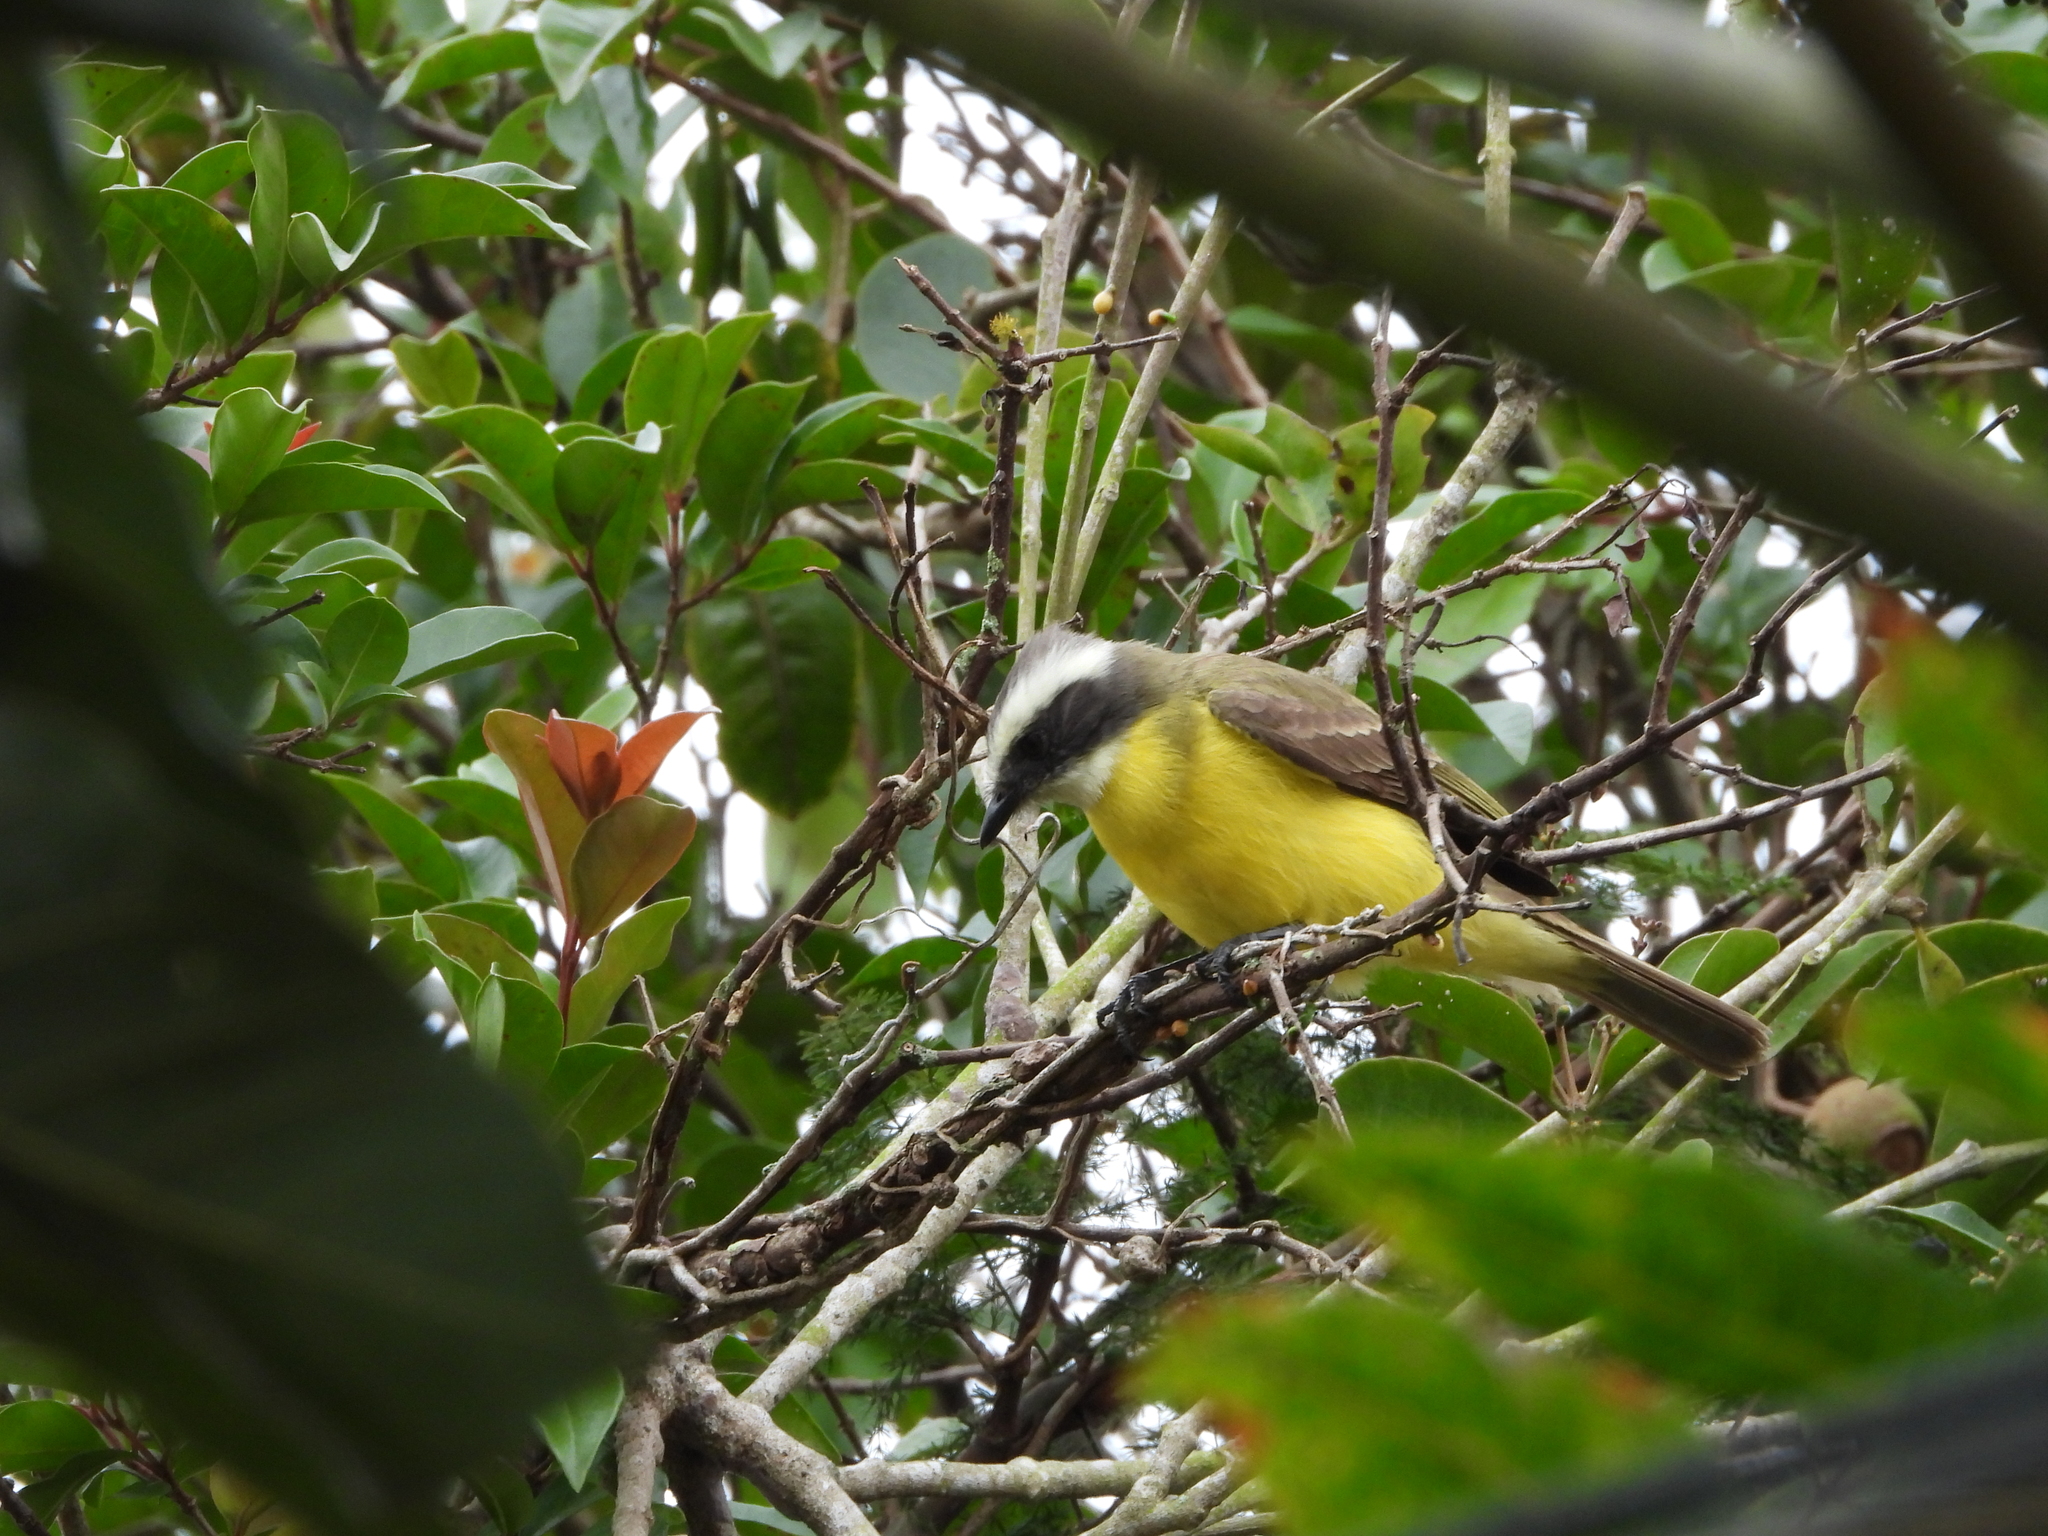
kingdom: Animalia
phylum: Chordata
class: Aves
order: Passeriformes
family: Tyrannidae
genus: Myiozetetes
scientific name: Myiozetetes similis
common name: Social flycatcher
